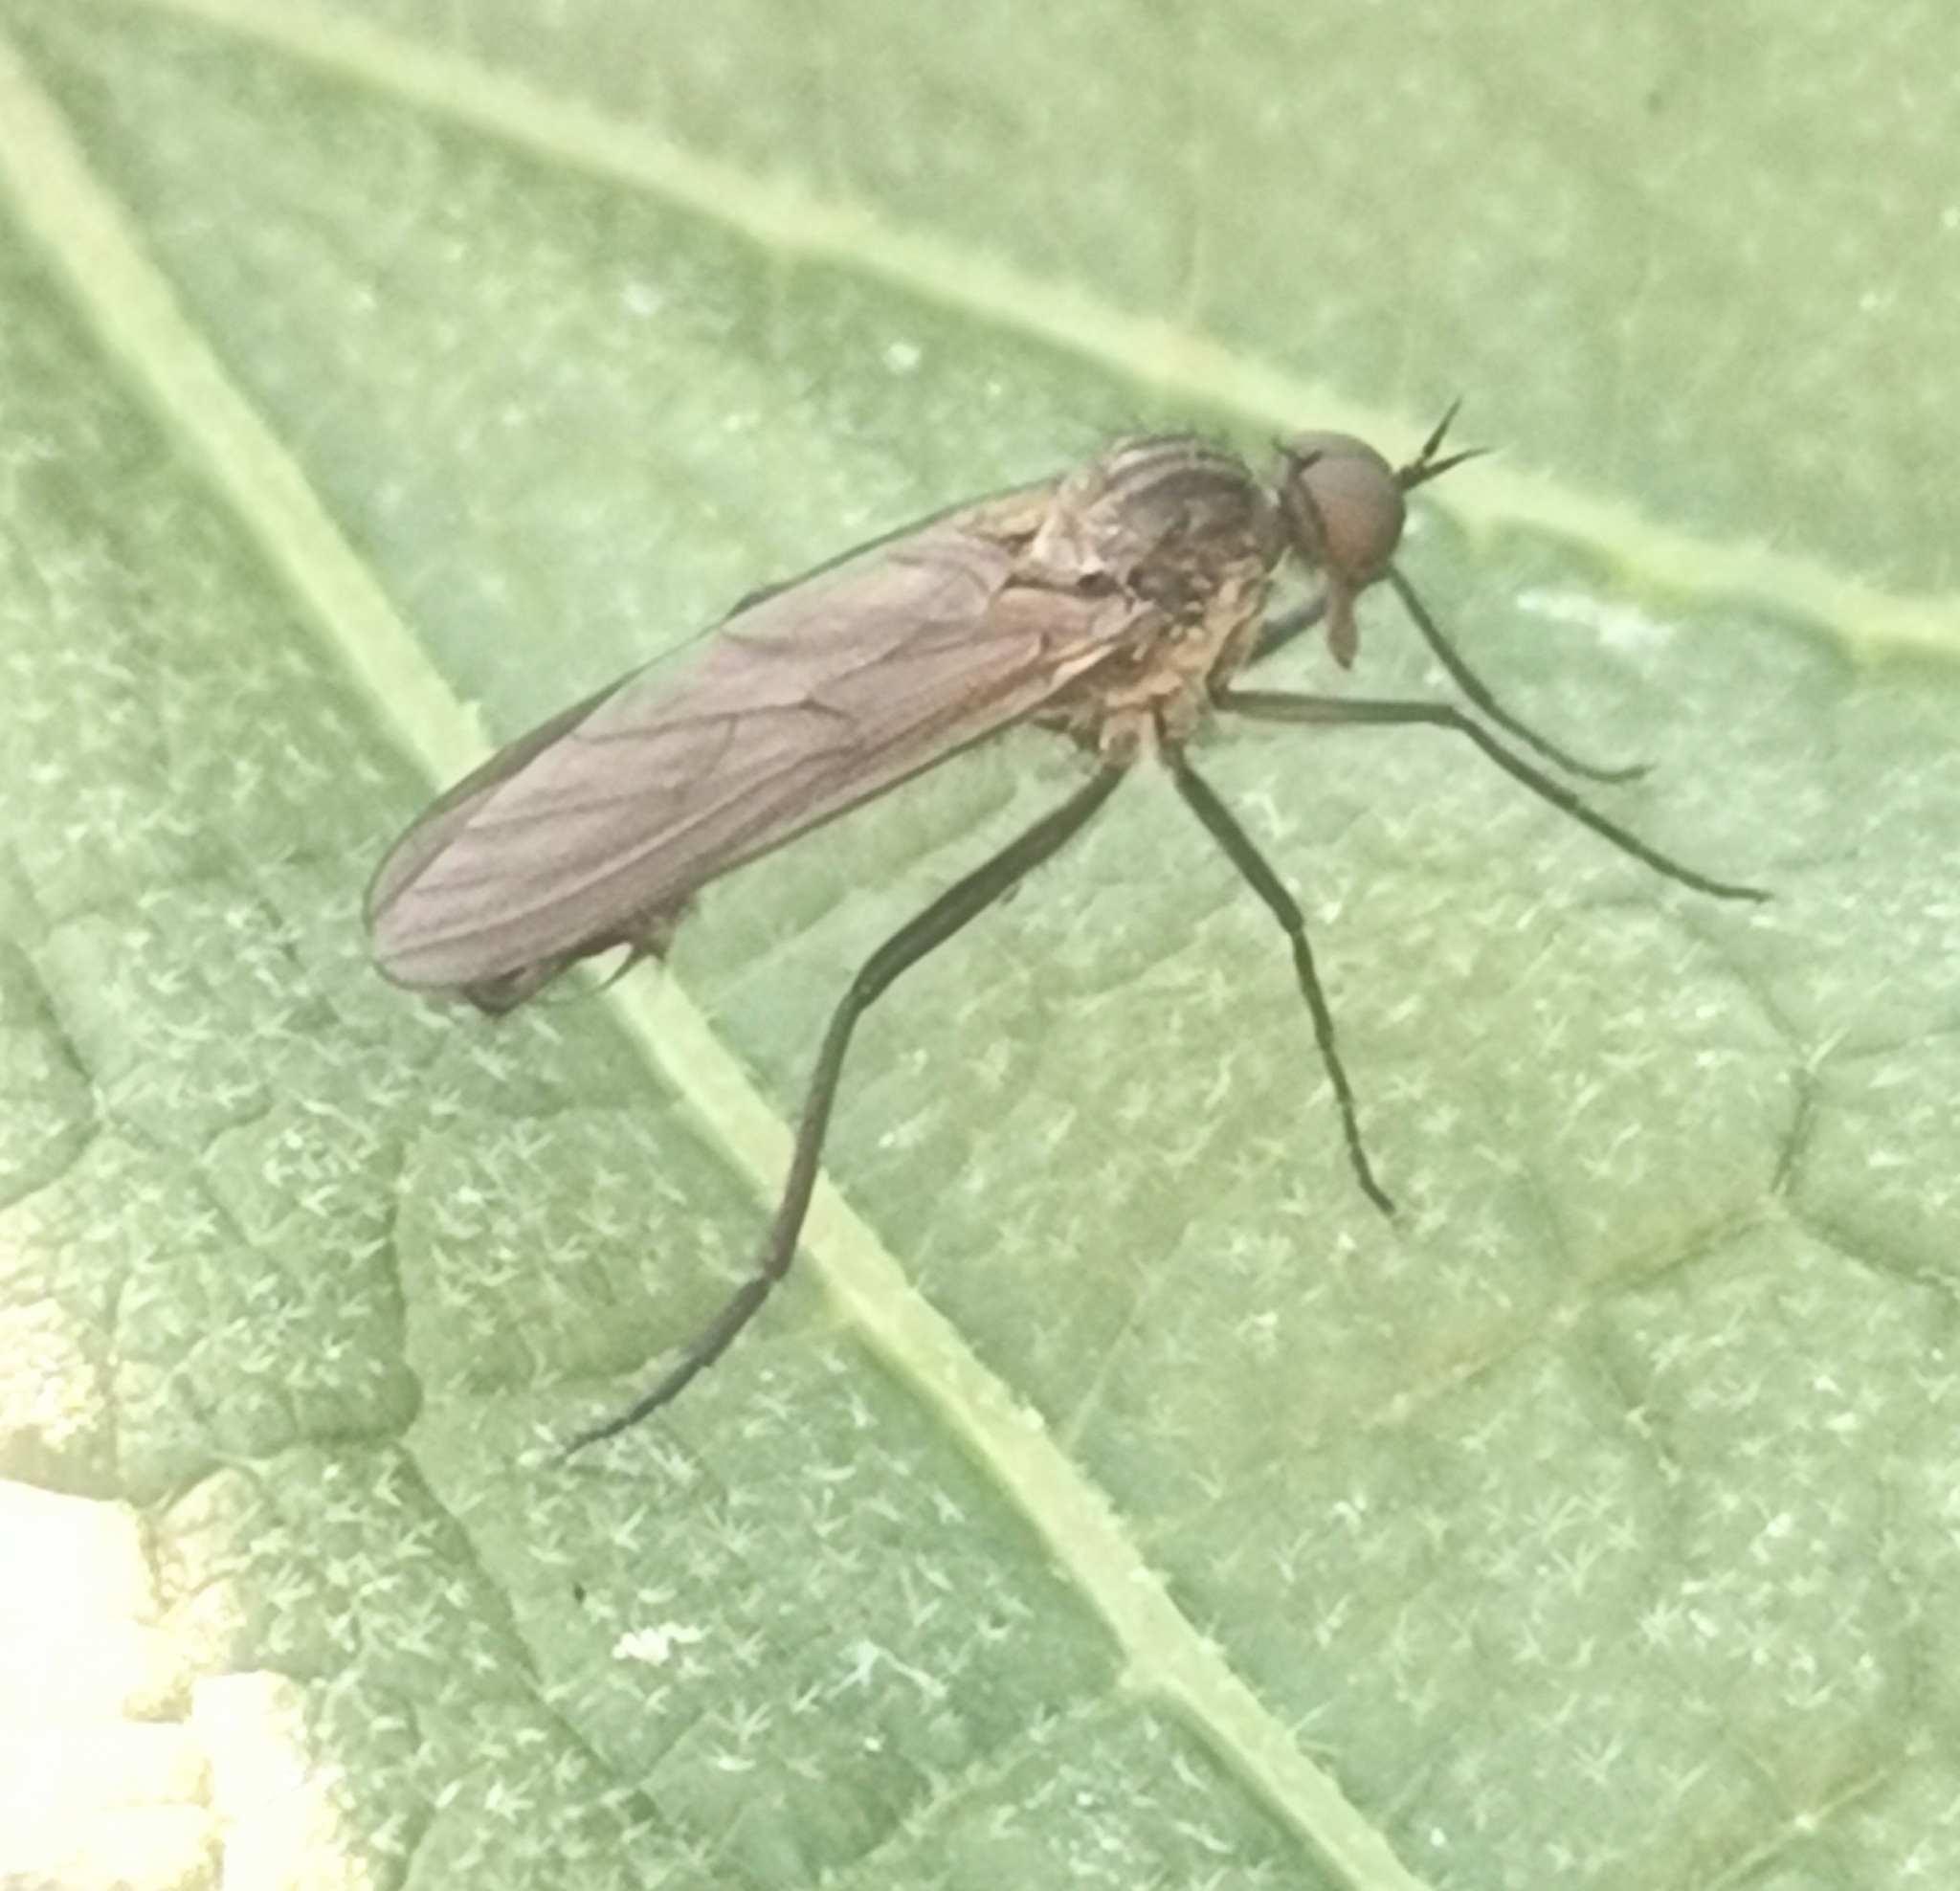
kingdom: Animalia
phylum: Arthropoda
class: Insecta
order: Diptera
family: Empididae
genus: Rhamphomyia
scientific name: Rhamphomyia spinipes
